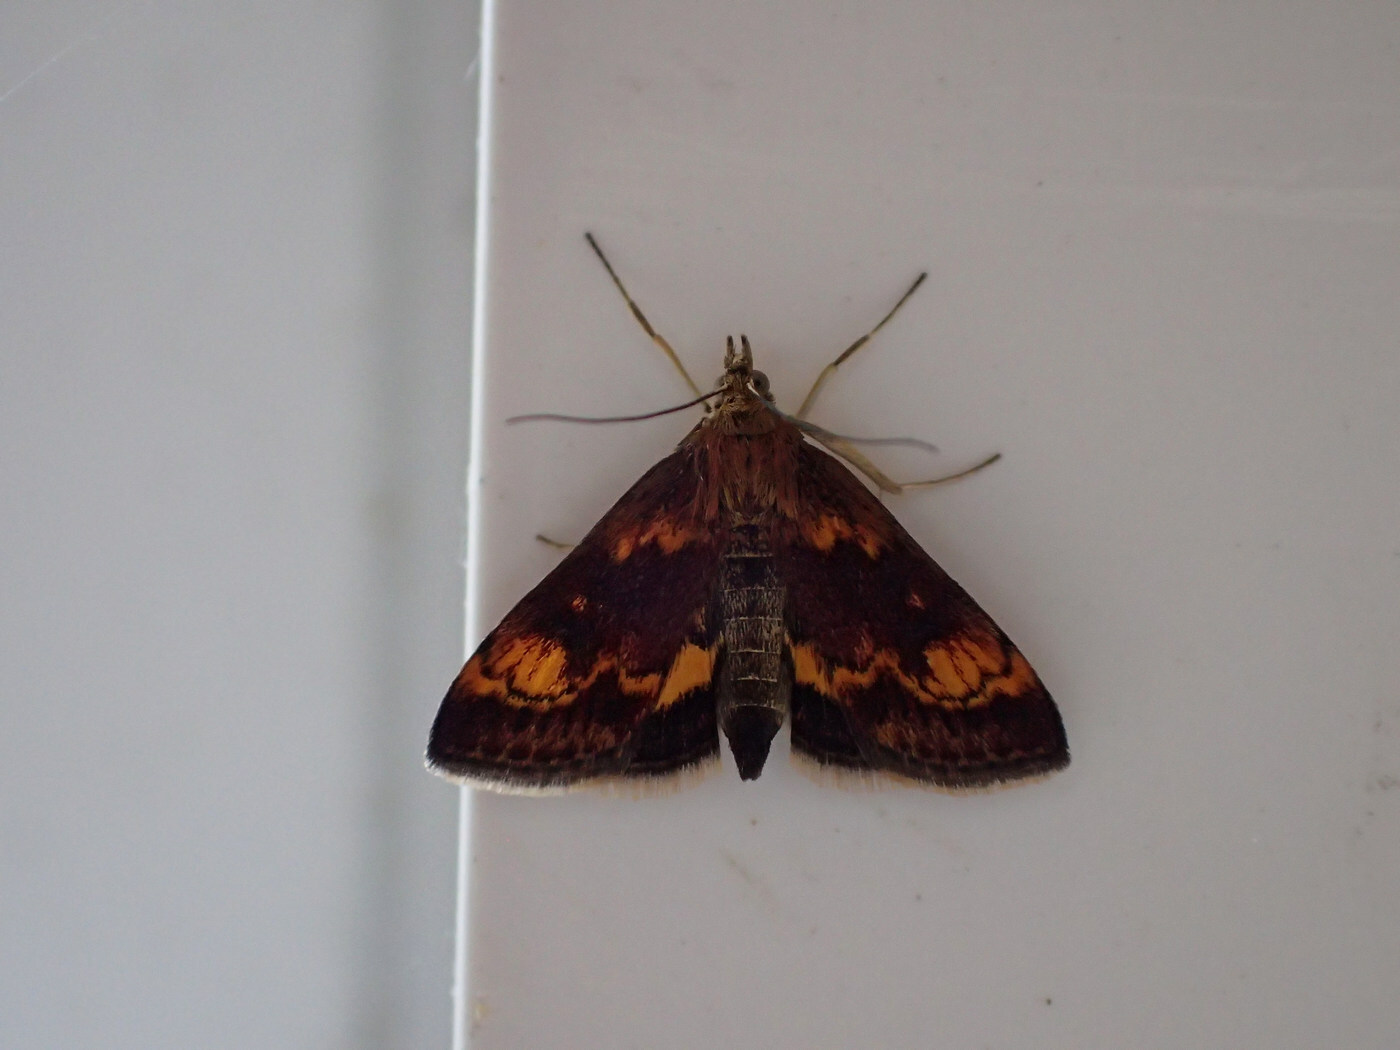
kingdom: Animalia
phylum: Arthropoda
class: Insecta
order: Lepidoptera
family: Crambidae
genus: Pyrausta
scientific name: Pyrausta orphisalis
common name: Orange mint moth
